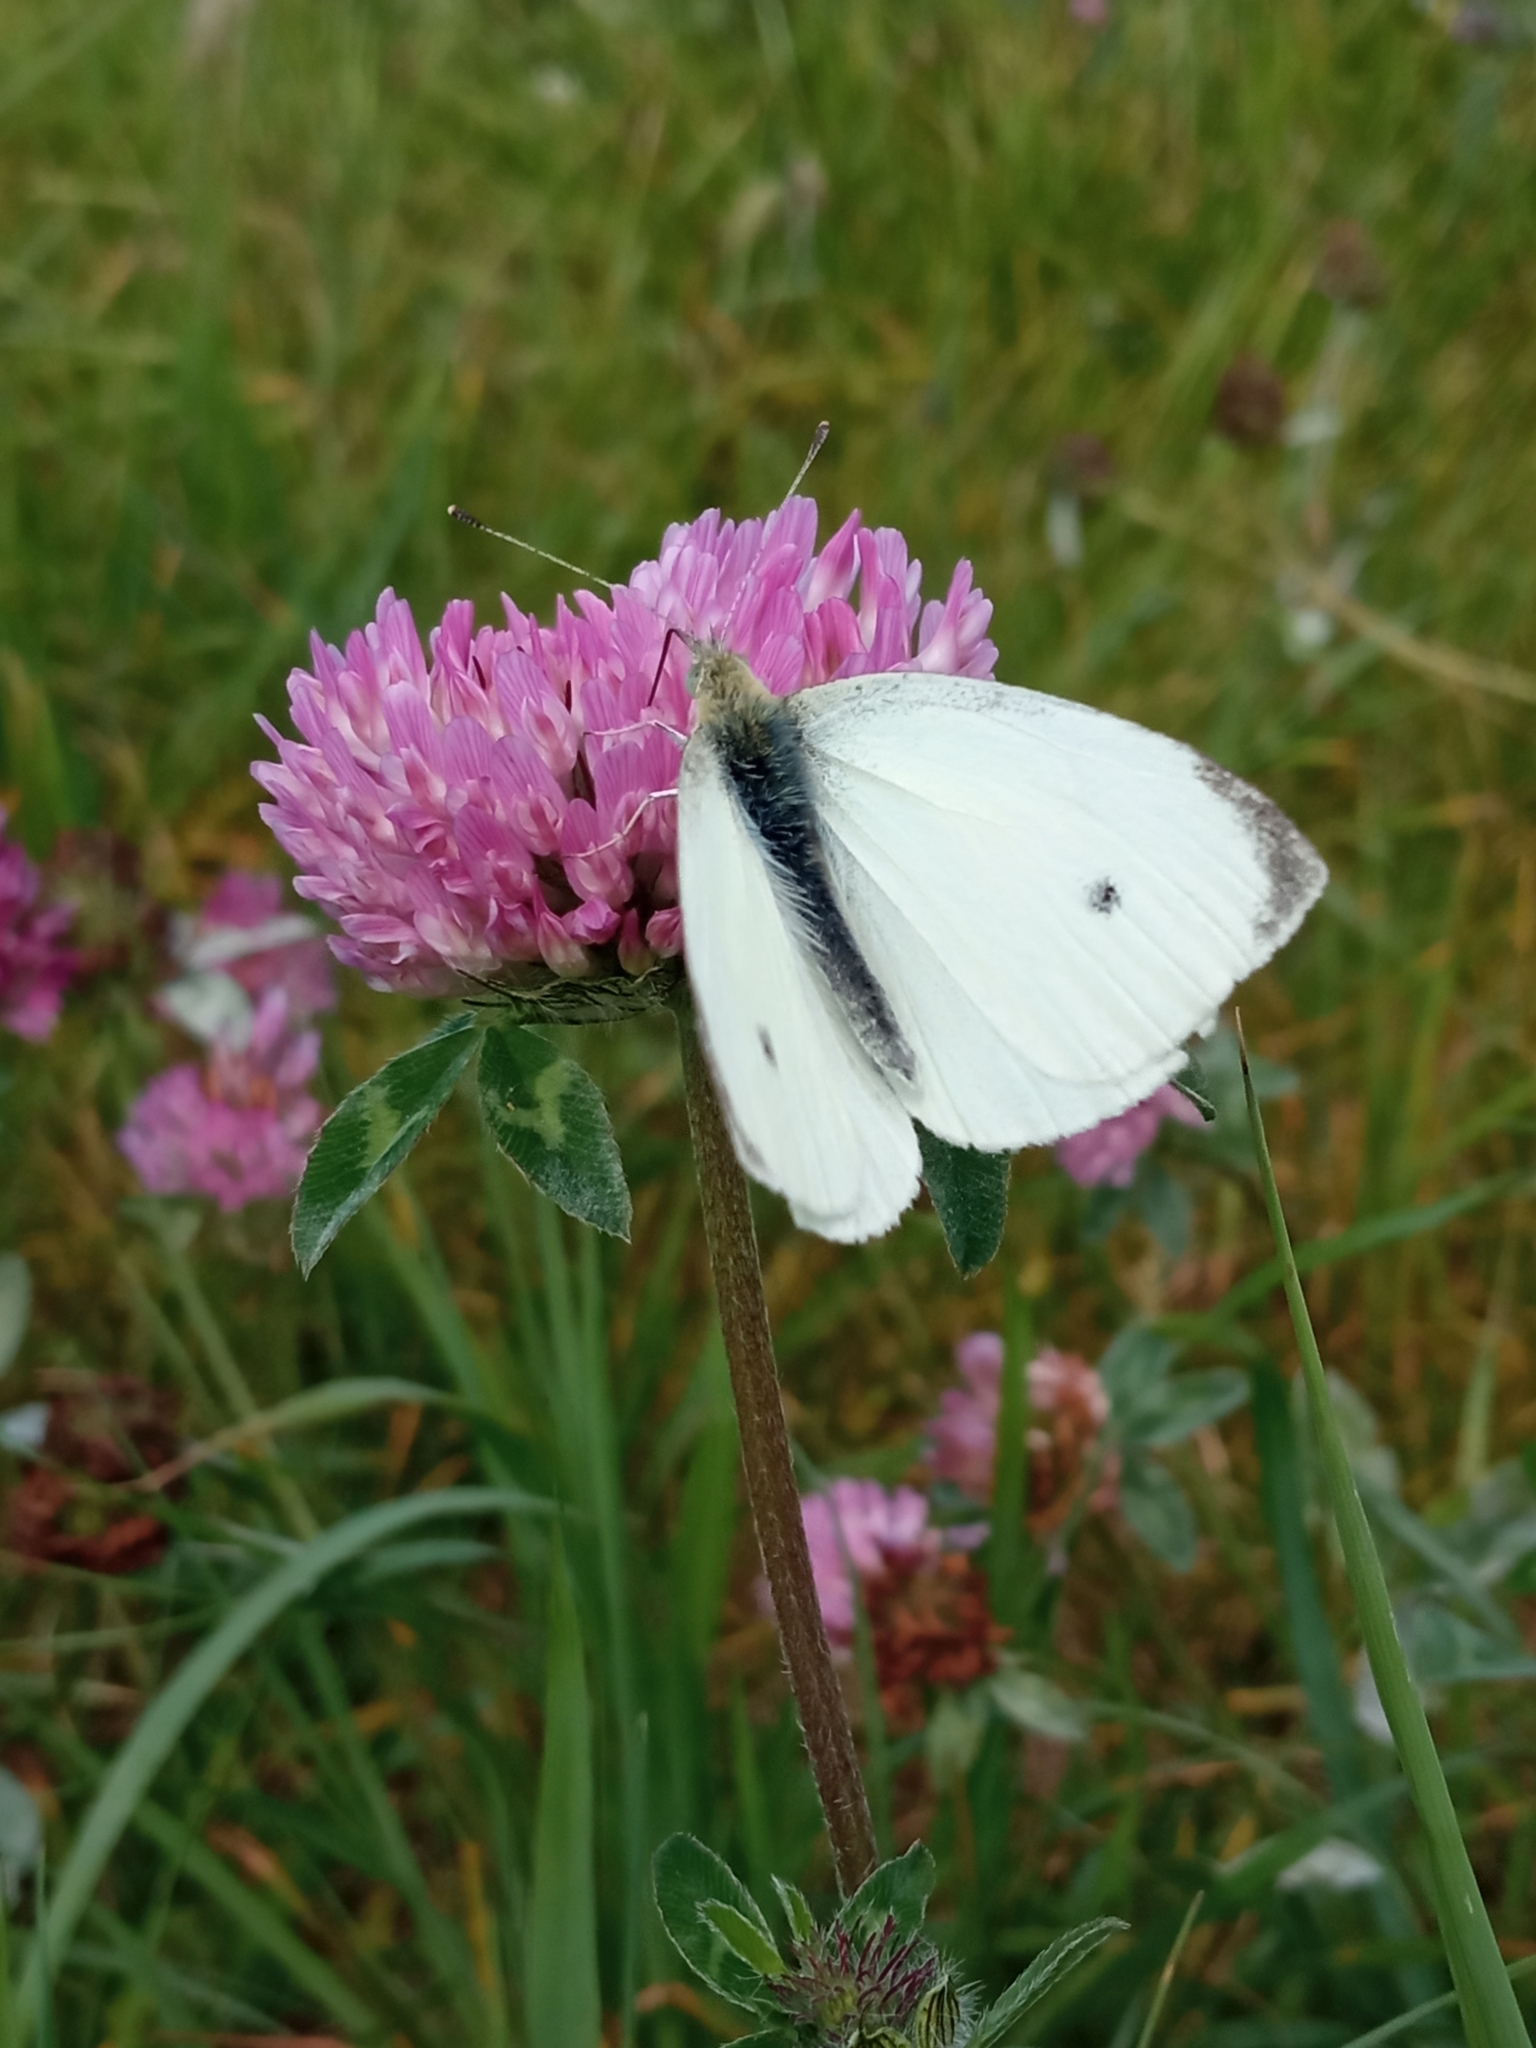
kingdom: Animalia
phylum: Arthropoda
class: Insecta
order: Lepidoptera
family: Pieridae
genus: Pieris
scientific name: Pieris rapae
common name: Small white
